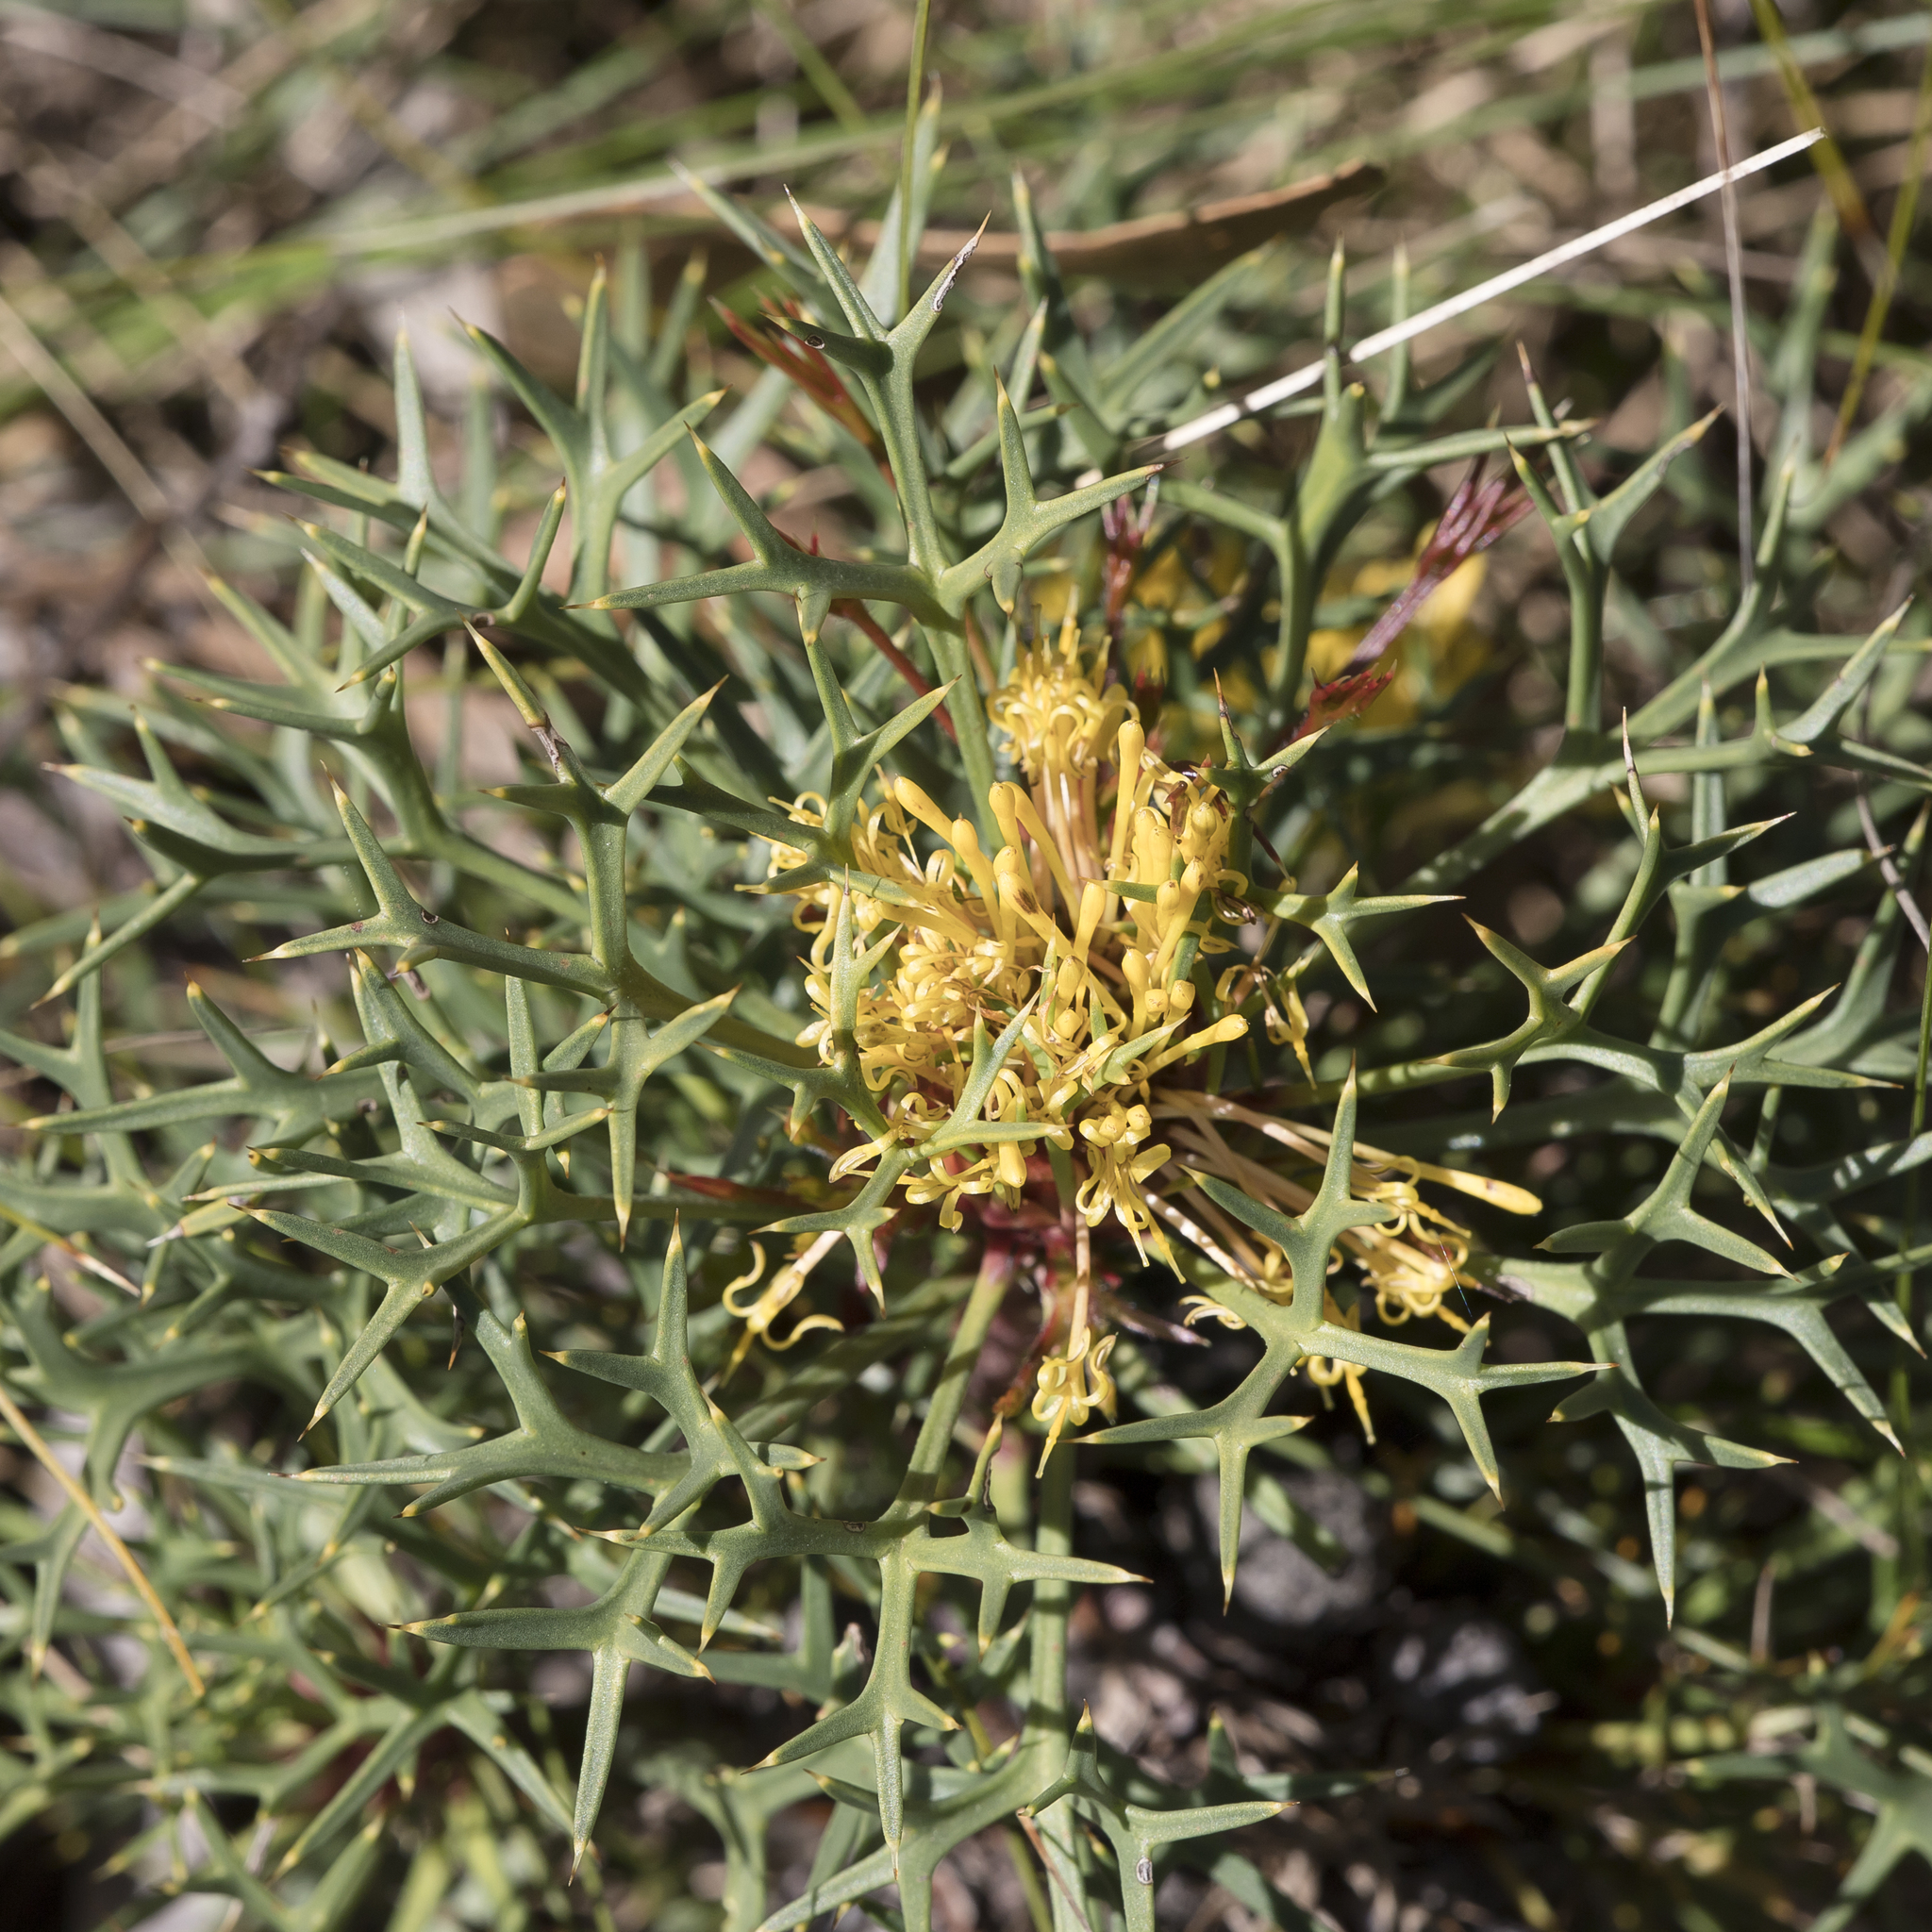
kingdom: Plantae
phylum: Tracheophyta
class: Magnoliopsida
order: Proteales
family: Proteaceae
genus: Isopogon
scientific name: Isopogon ceratophyllus
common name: Horny cone-bush
